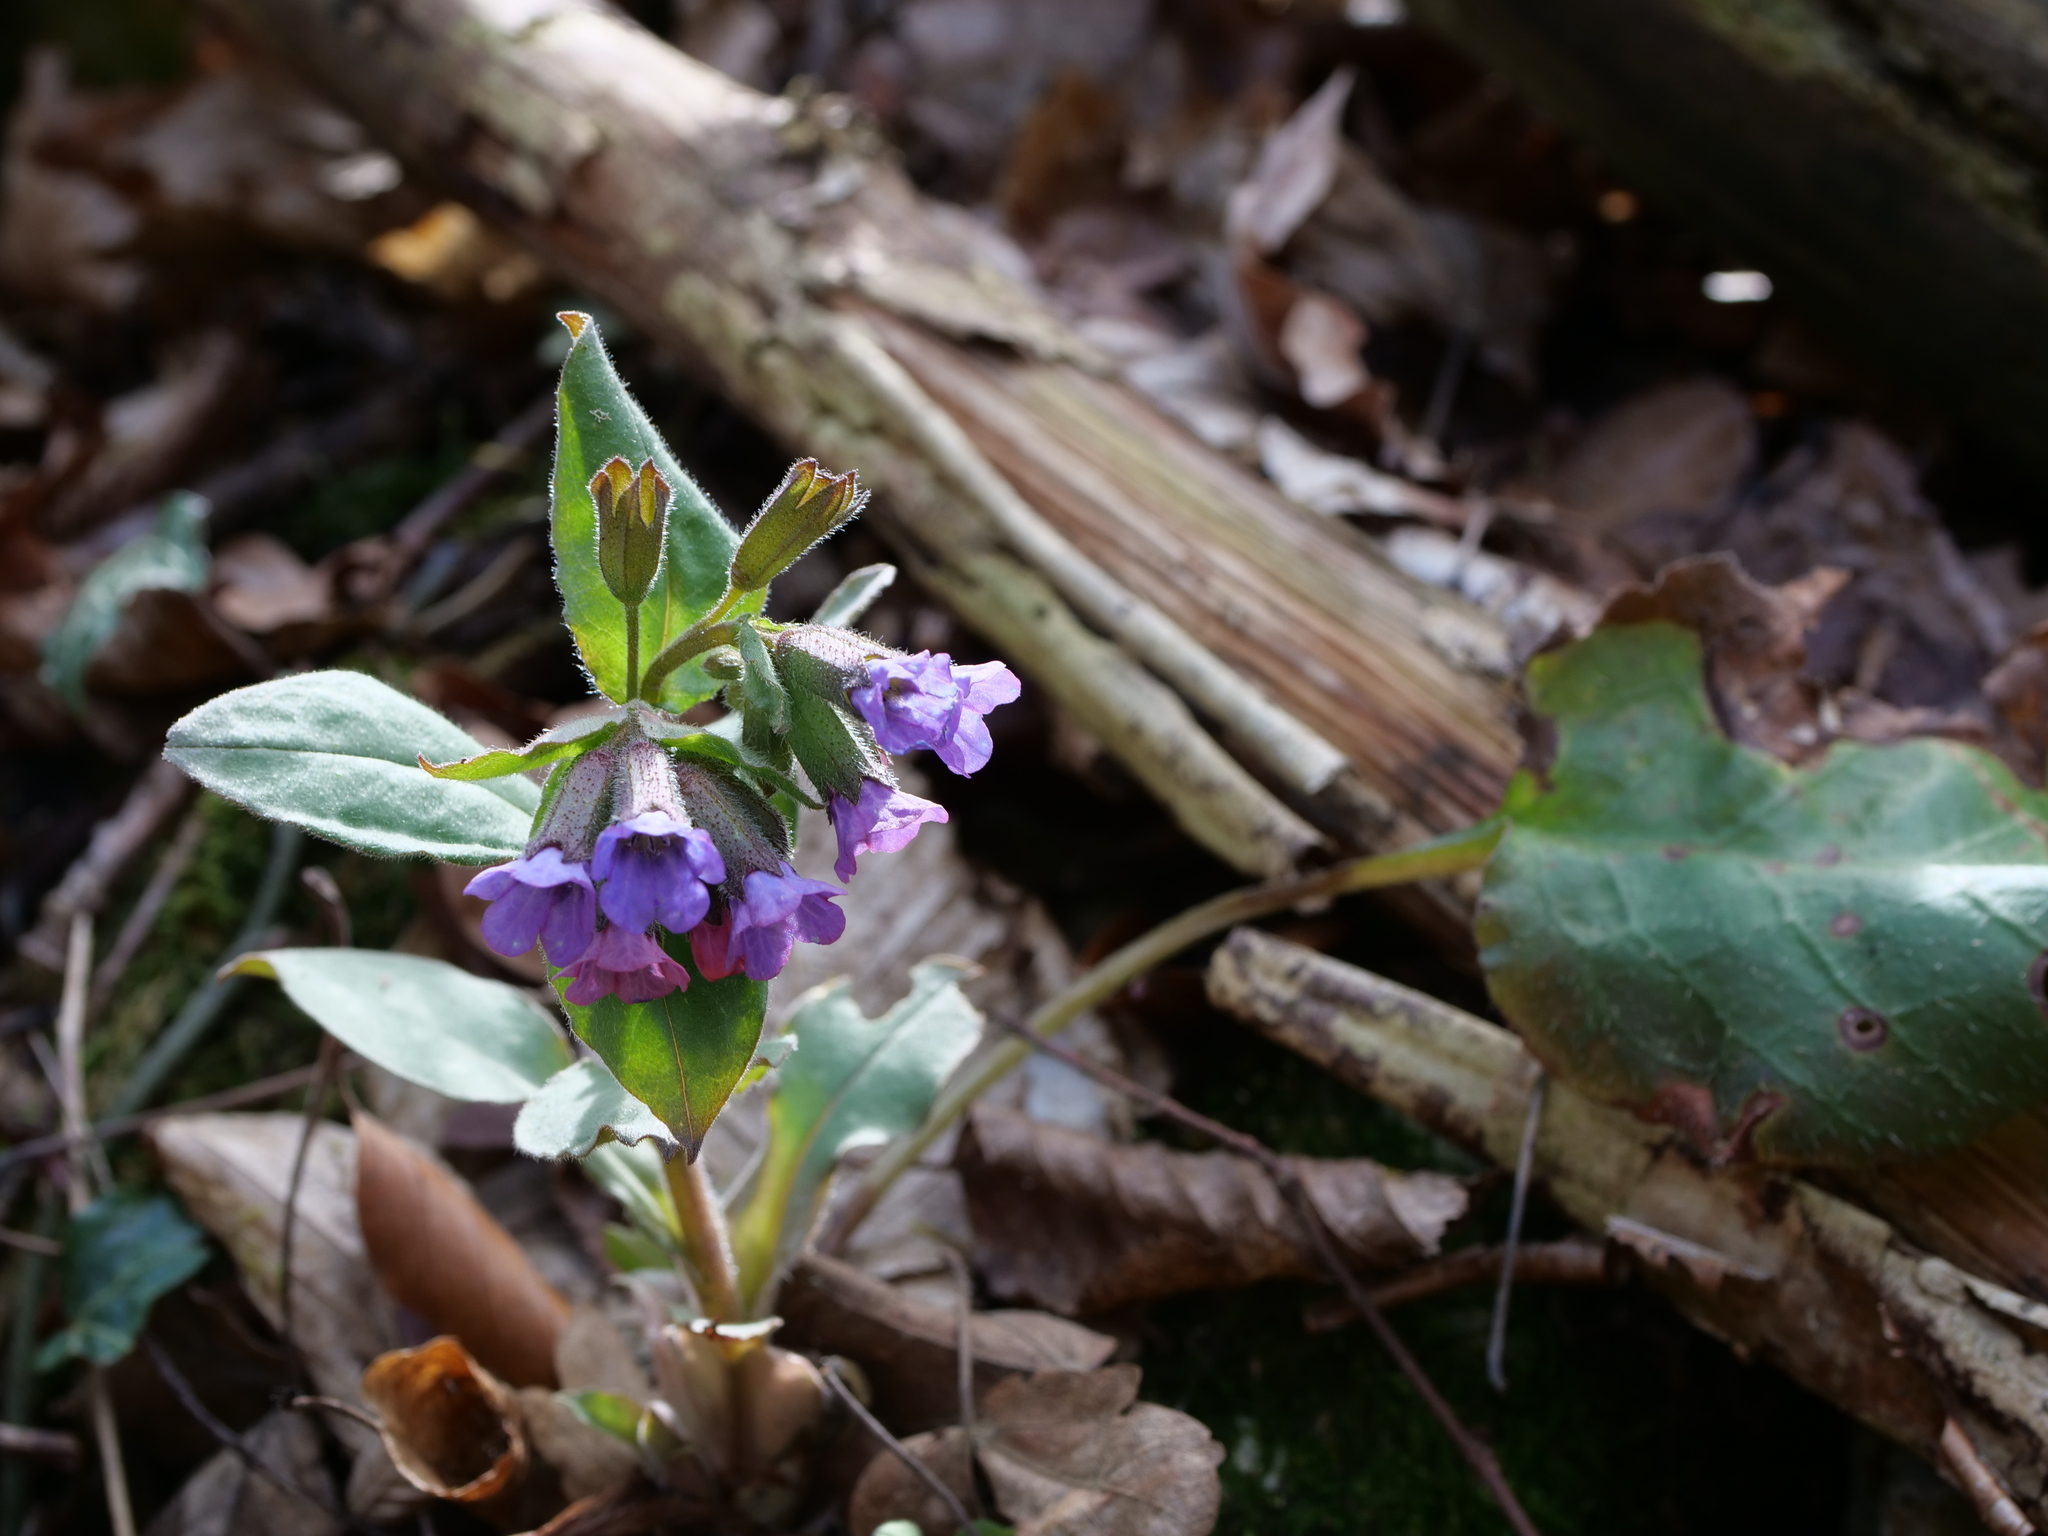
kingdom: Plantae
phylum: Tracheophyta
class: Magnoliopsida
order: Boraginales
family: Boraginaceae
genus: Pulmonaria
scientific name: Pulmonaria obscura
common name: Suffolk lungwort
